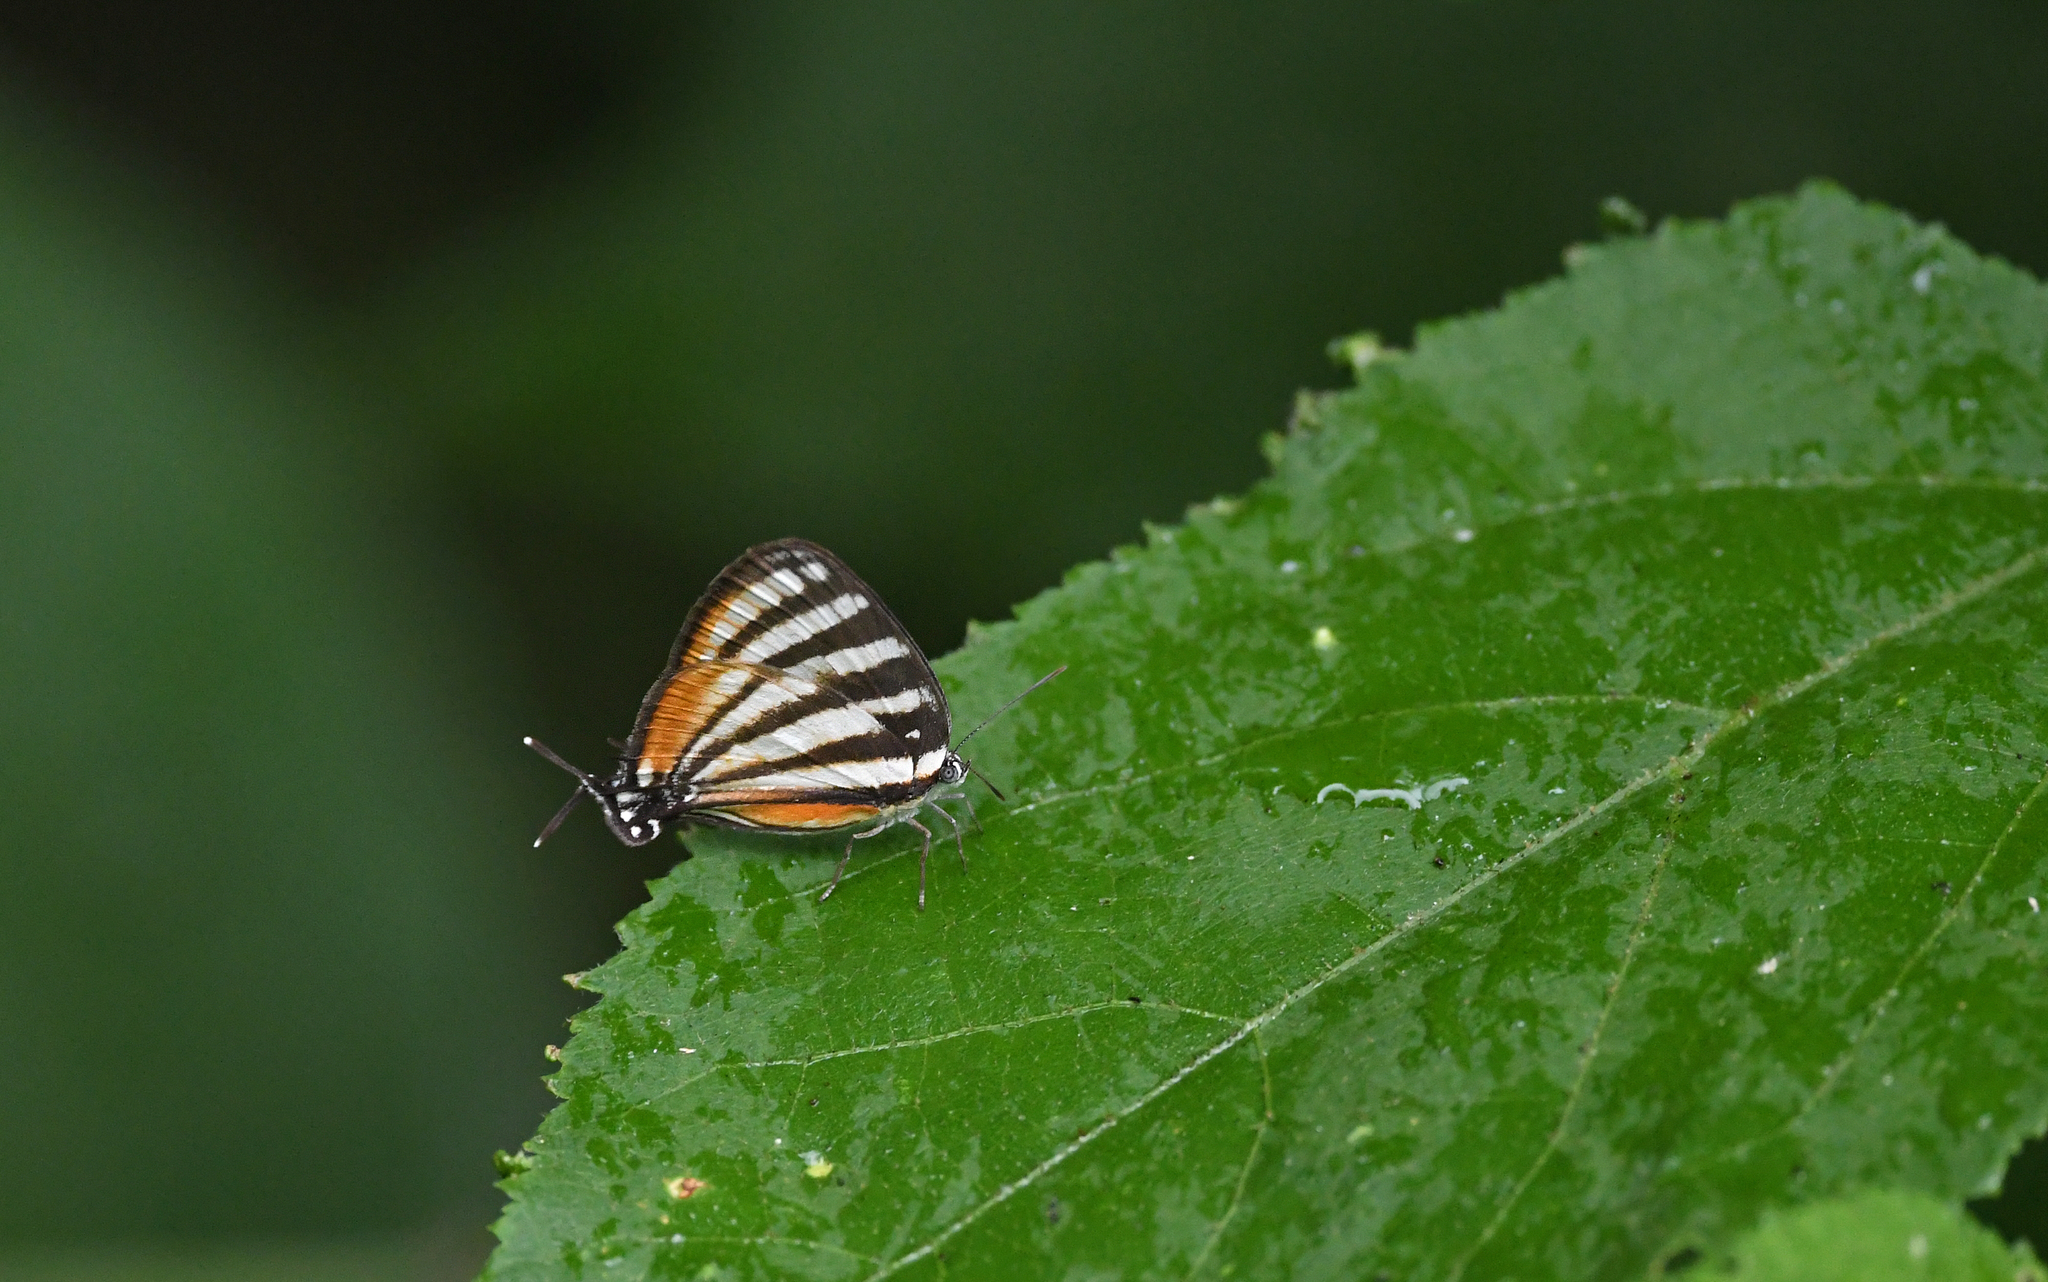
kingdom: Animalia
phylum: Arthropoda
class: Insecta
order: Lepidoptera
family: Lycaenidae
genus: Arawacus
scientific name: Arawacus lincoides
